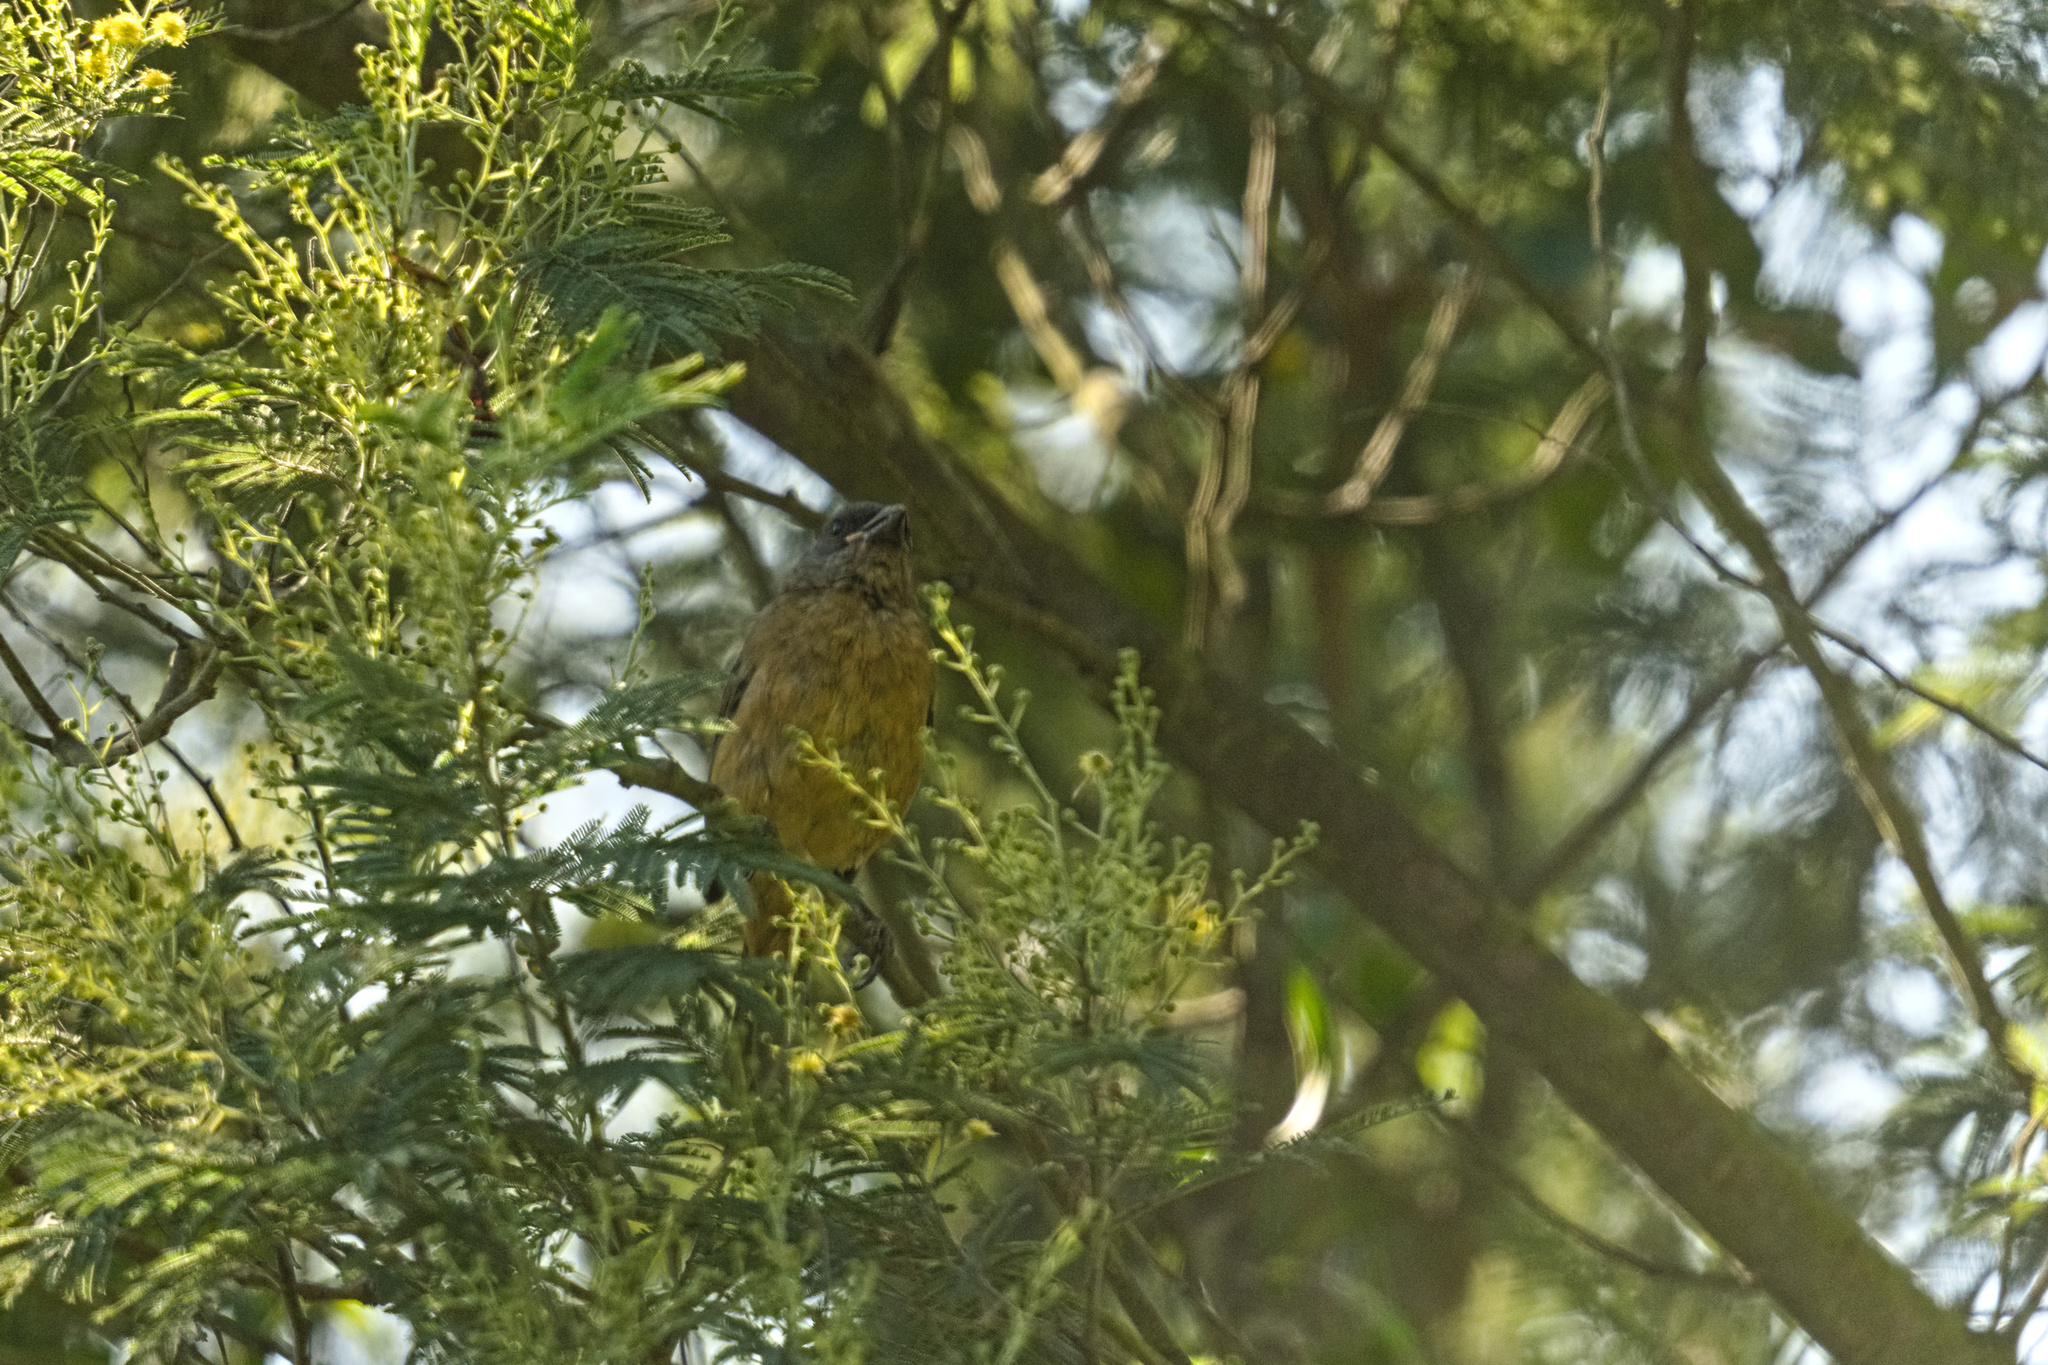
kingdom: Animalia
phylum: Chordata
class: Aves
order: Passeriformes
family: Thraupidae
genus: Rauenia
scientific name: Rauenia bonariensis
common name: Blue-and-yellow tanager
